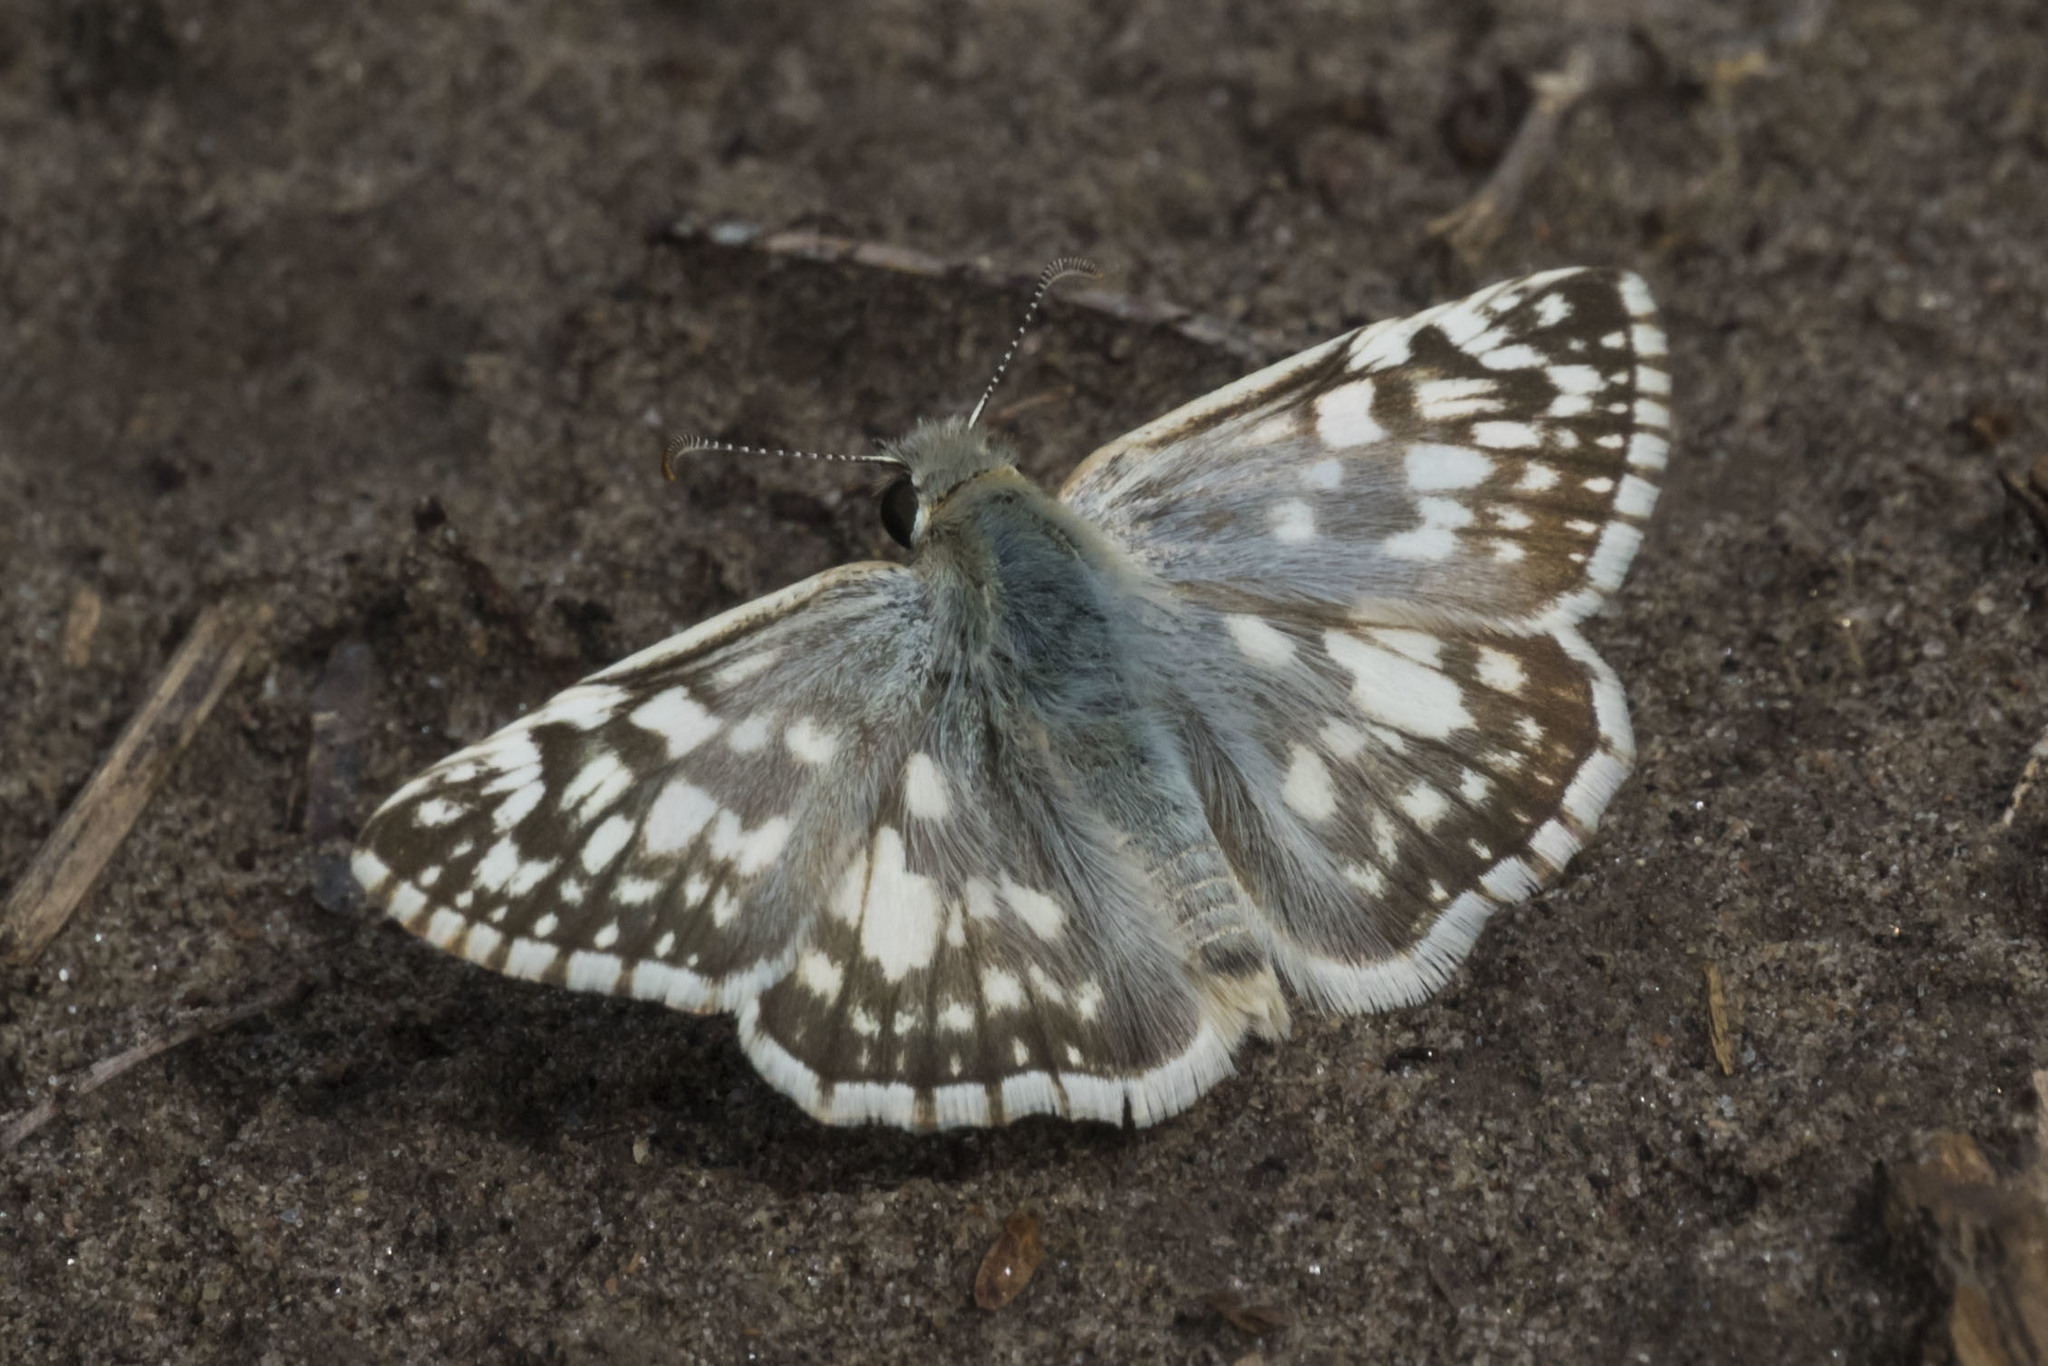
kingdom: Animalia
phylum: Arthropoda
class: Insecta
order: Lepidoptera
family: Hesperiidae
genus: Heliopetes
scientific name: Heliopetes americanus
